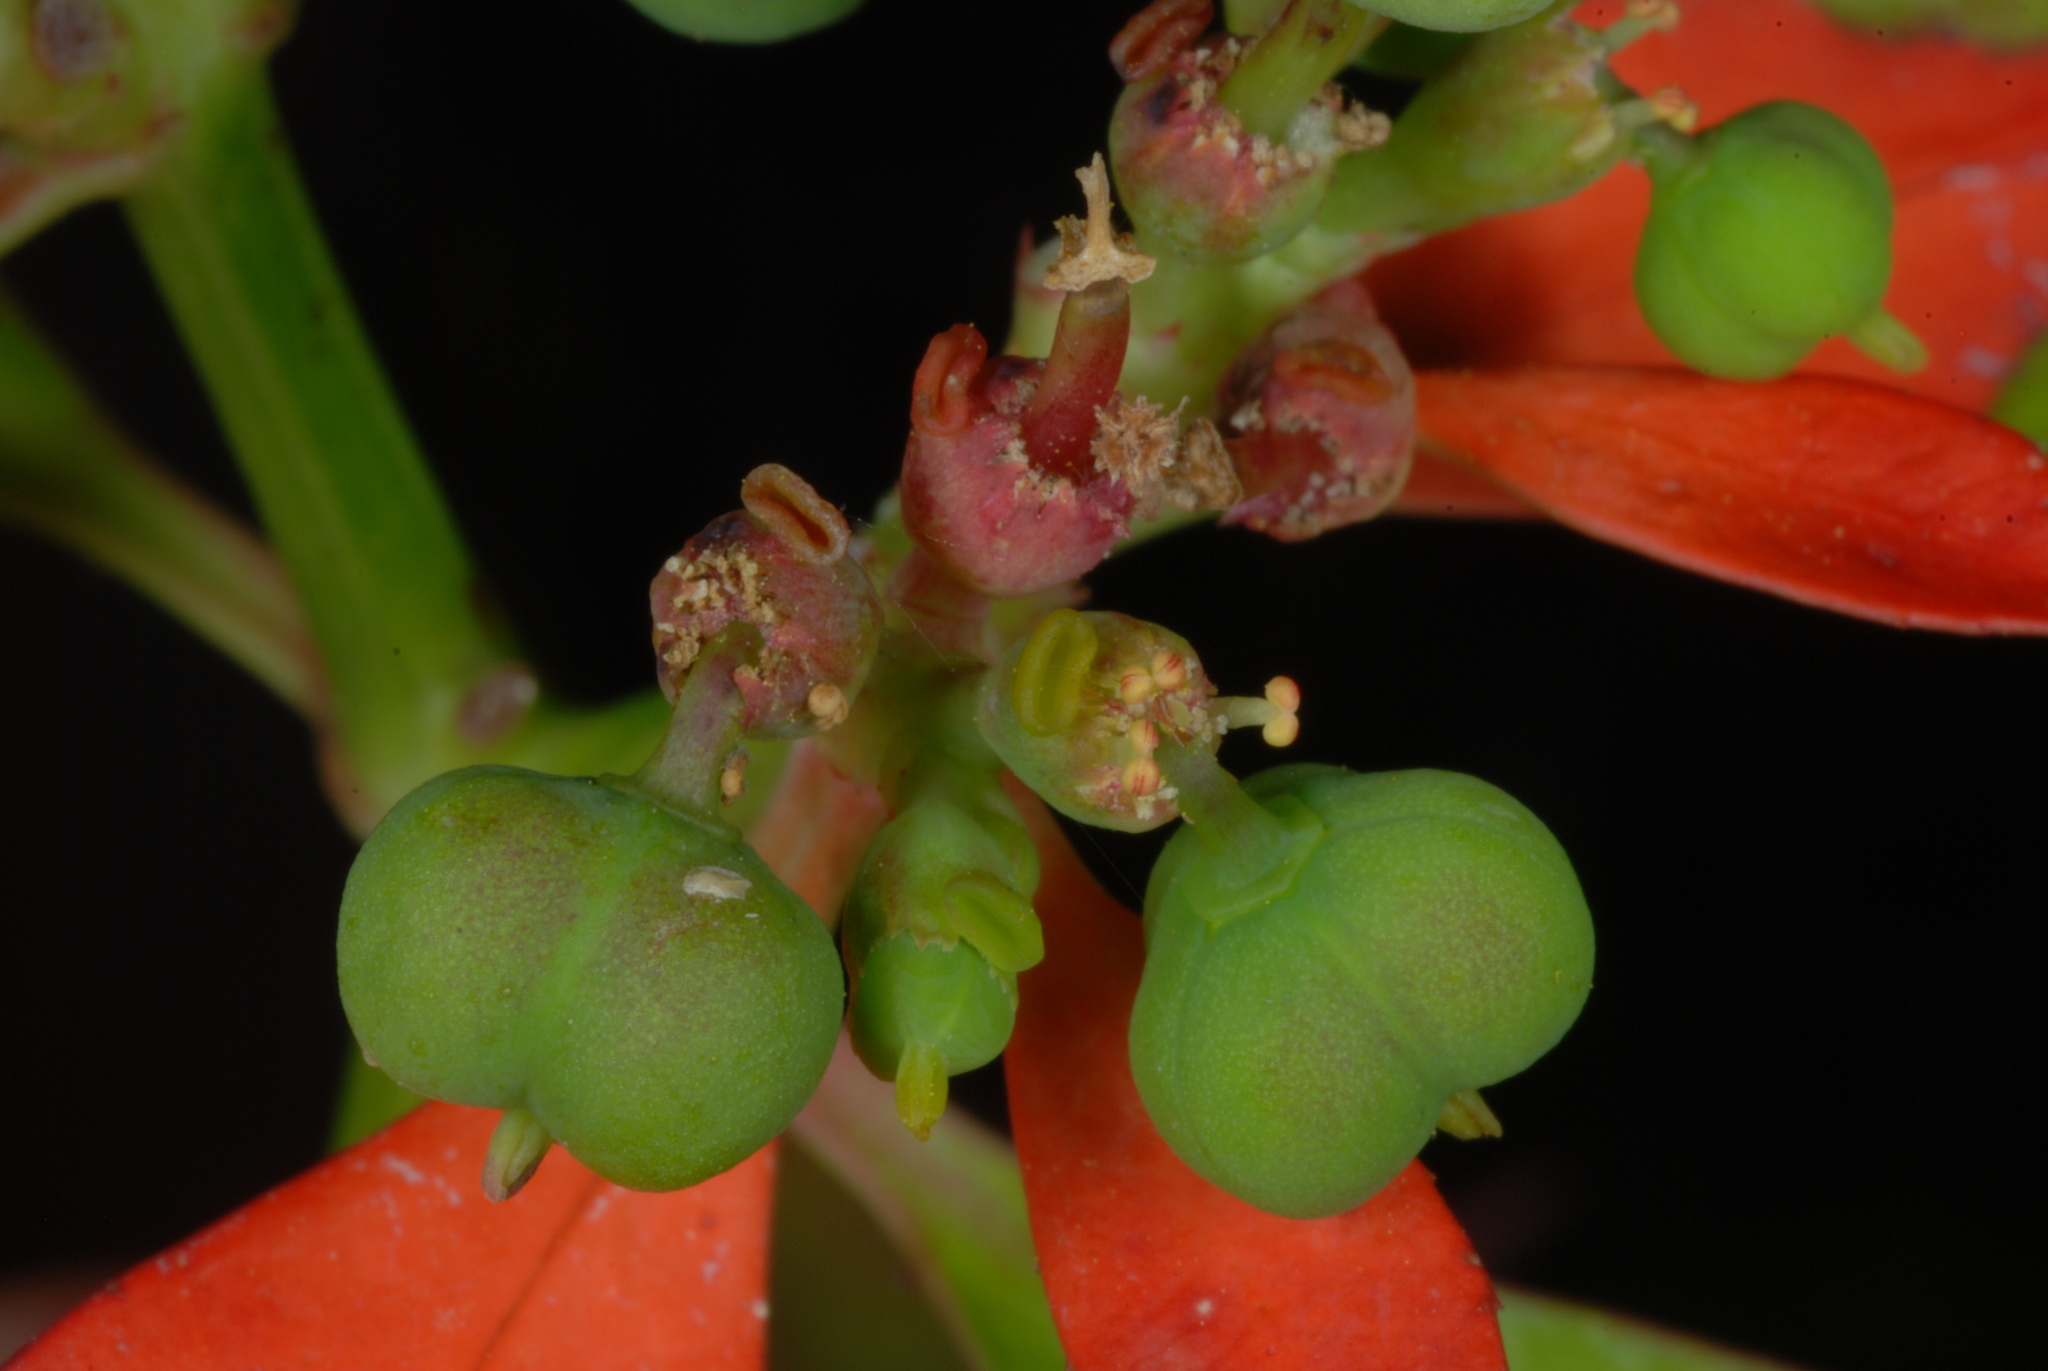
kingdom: Plantae
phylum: Tracheophyta
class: Magnoliopsida
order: Malpighiales
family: Euphorbiaceae
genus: Euphorbia
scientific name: Euphorbia heterophylla
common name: Mexican fireplant
